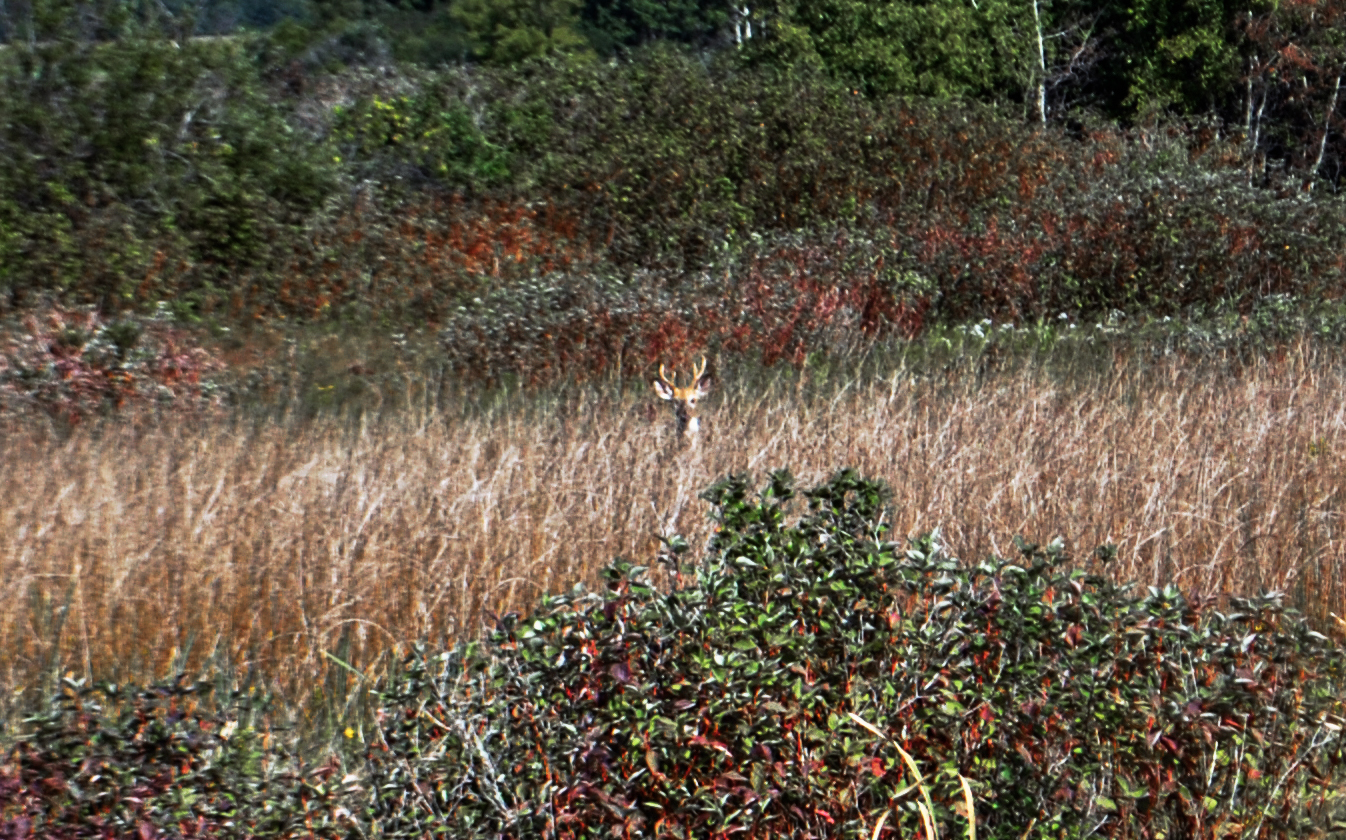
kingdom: Animalia
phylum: Chordata
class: Mammalia
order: Artiodactyla
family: Cervidae
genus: Odocoileus
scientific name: Odocoileus virginianus
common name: White-tailed deer
